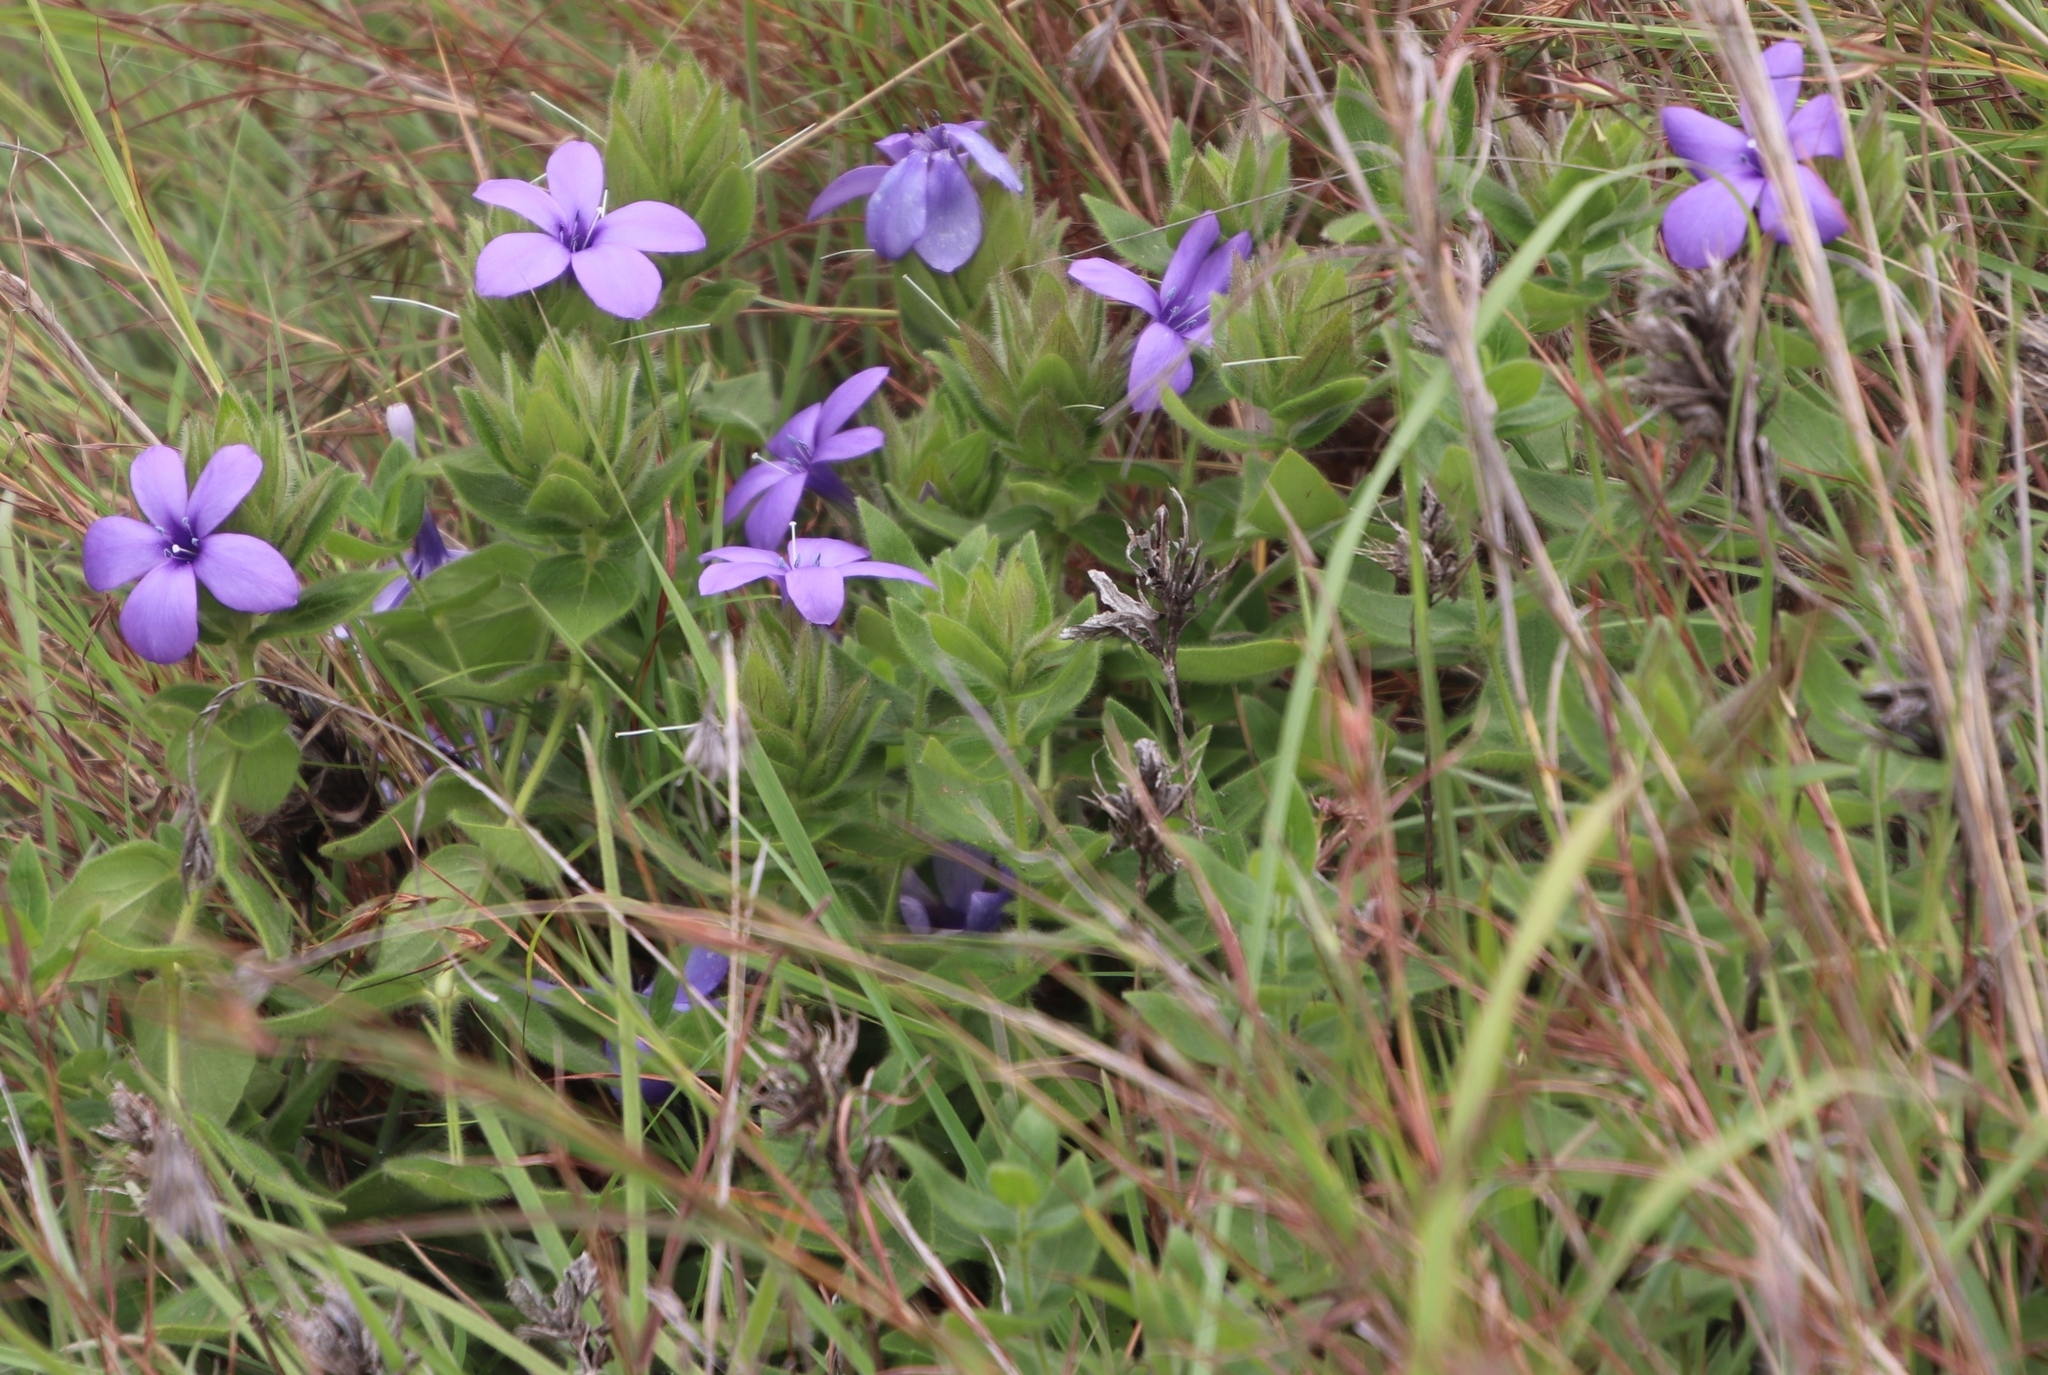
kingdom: Plantae
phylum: Tracheophyta
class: Magnoliopsida
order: Lamiales
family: Acanthaceae
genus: Barleria
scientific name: Barleria ovata
